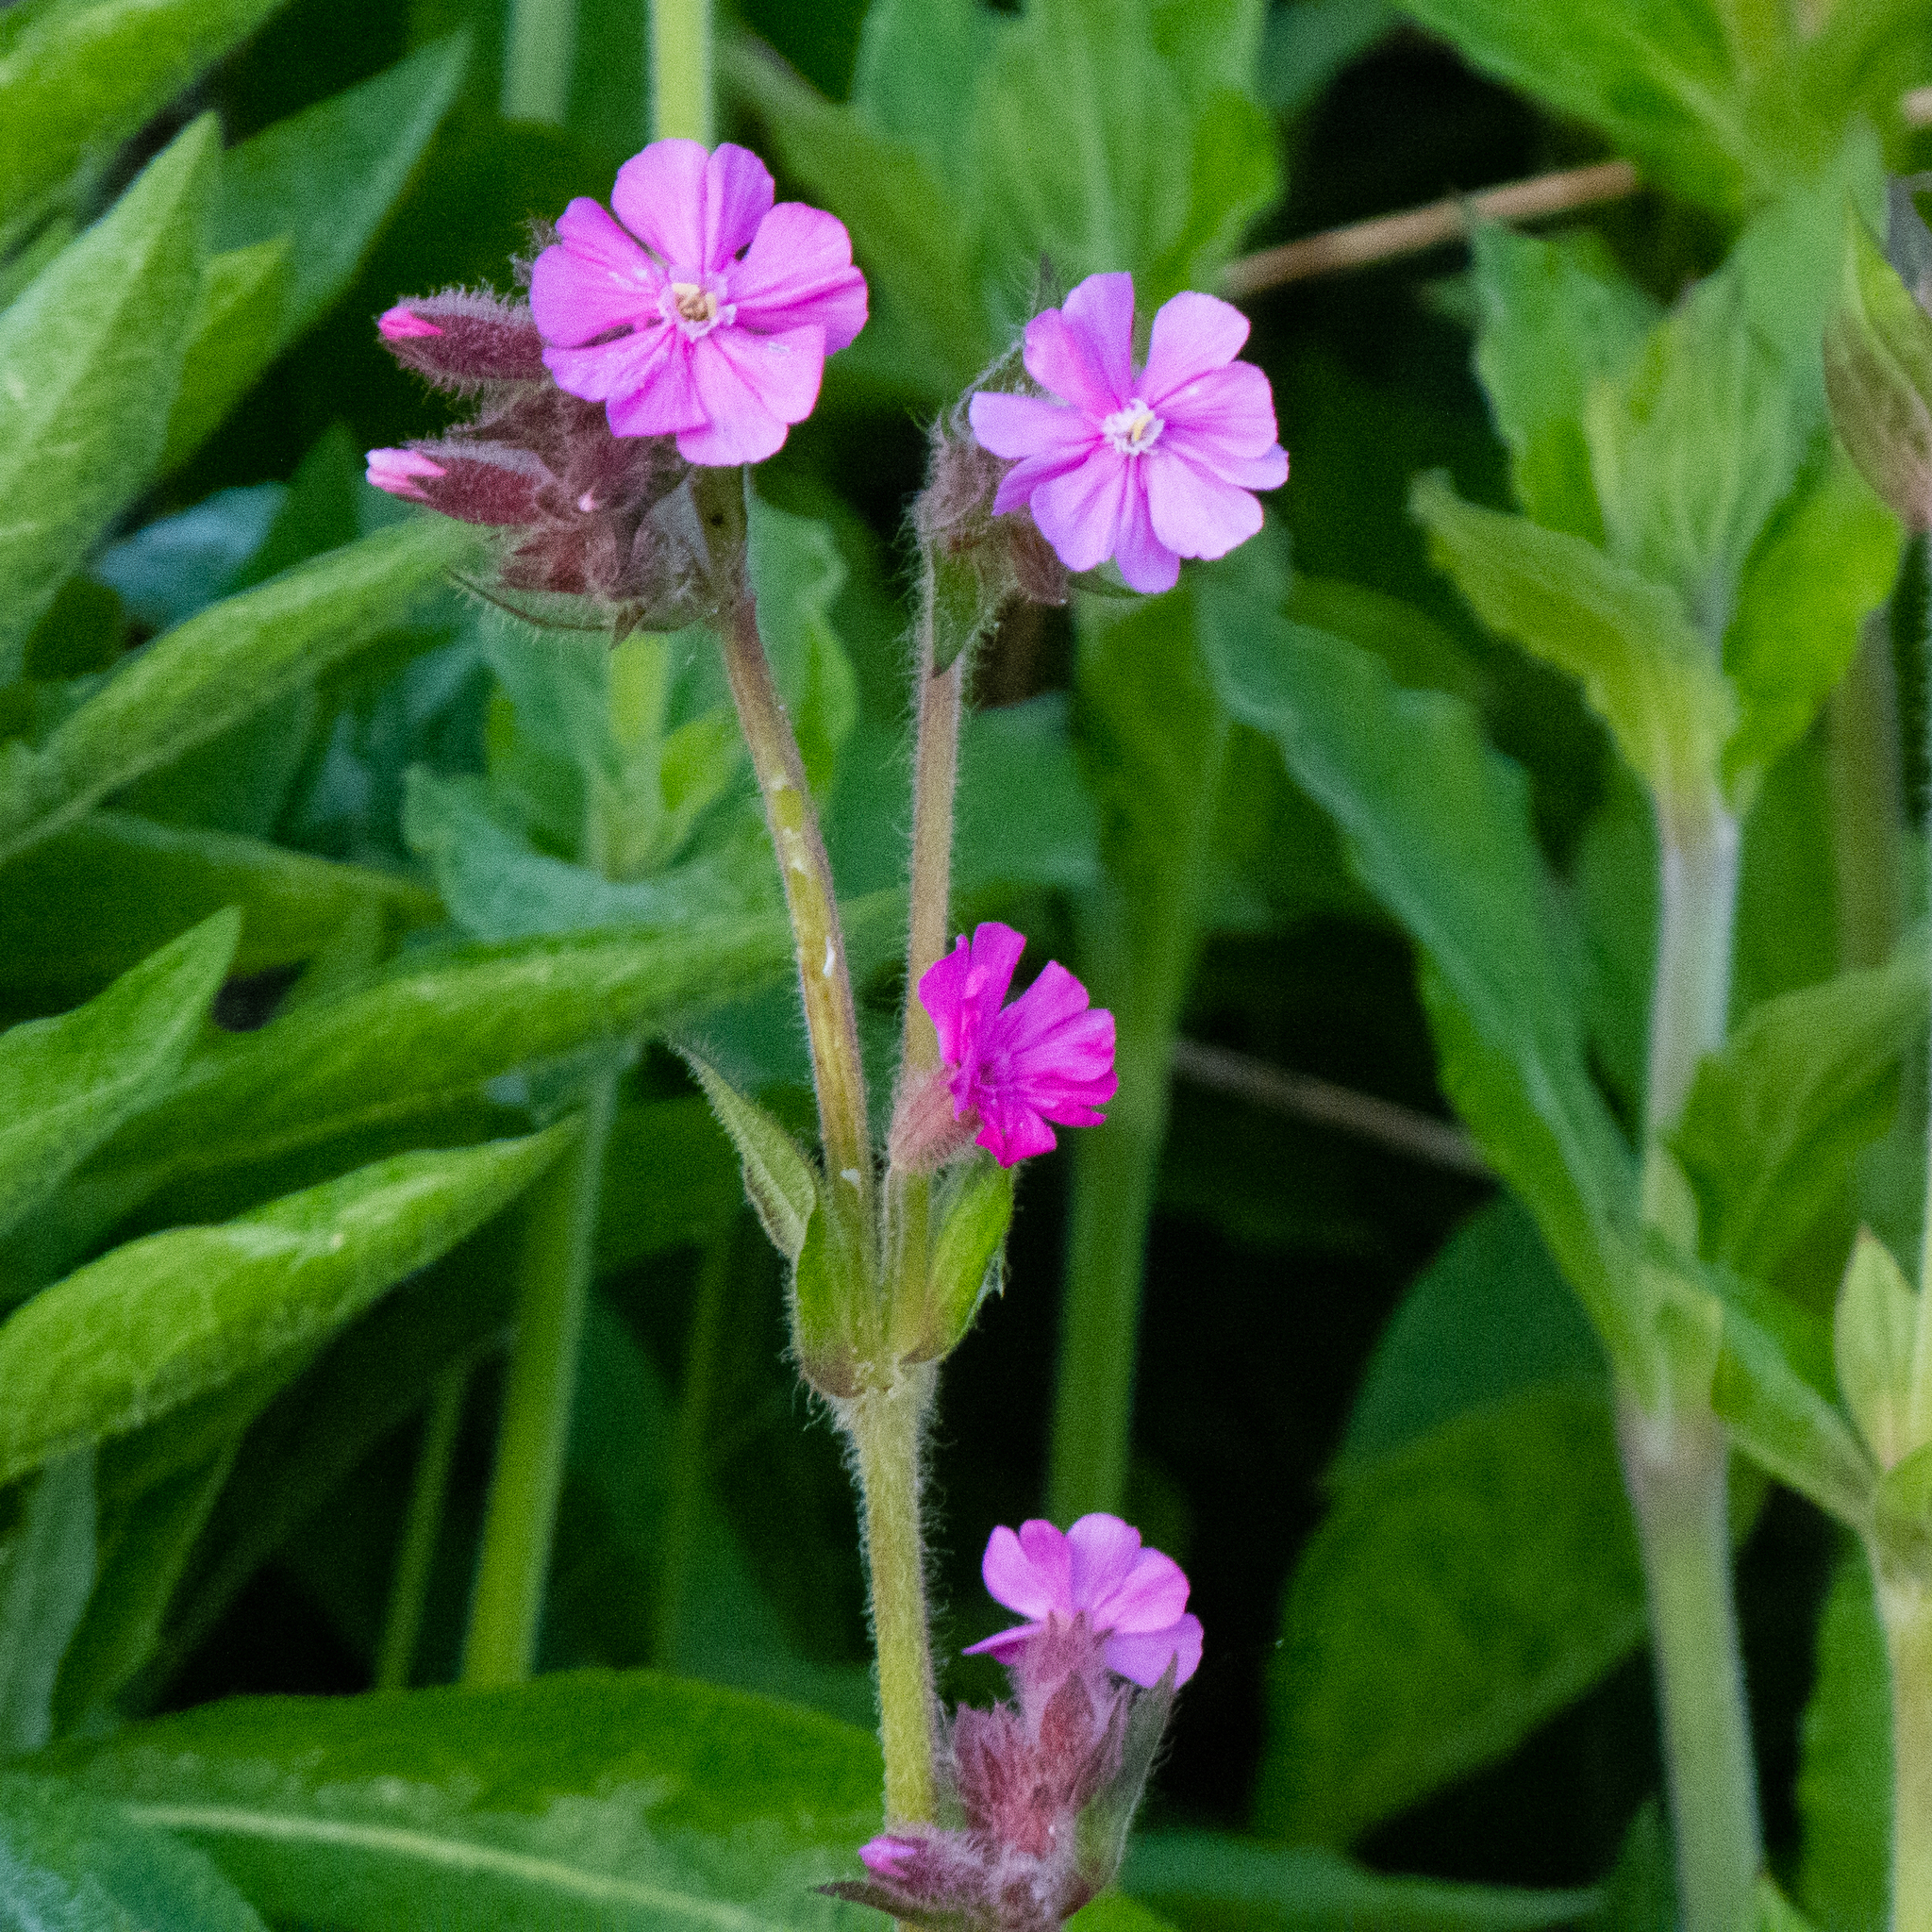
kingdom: Plantae
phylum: Tracheophyta
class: Magnoliopsida
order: Caryophyllales
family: Caryophyllaceae
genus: Silene
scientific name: Silene dioica
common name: Red campion
